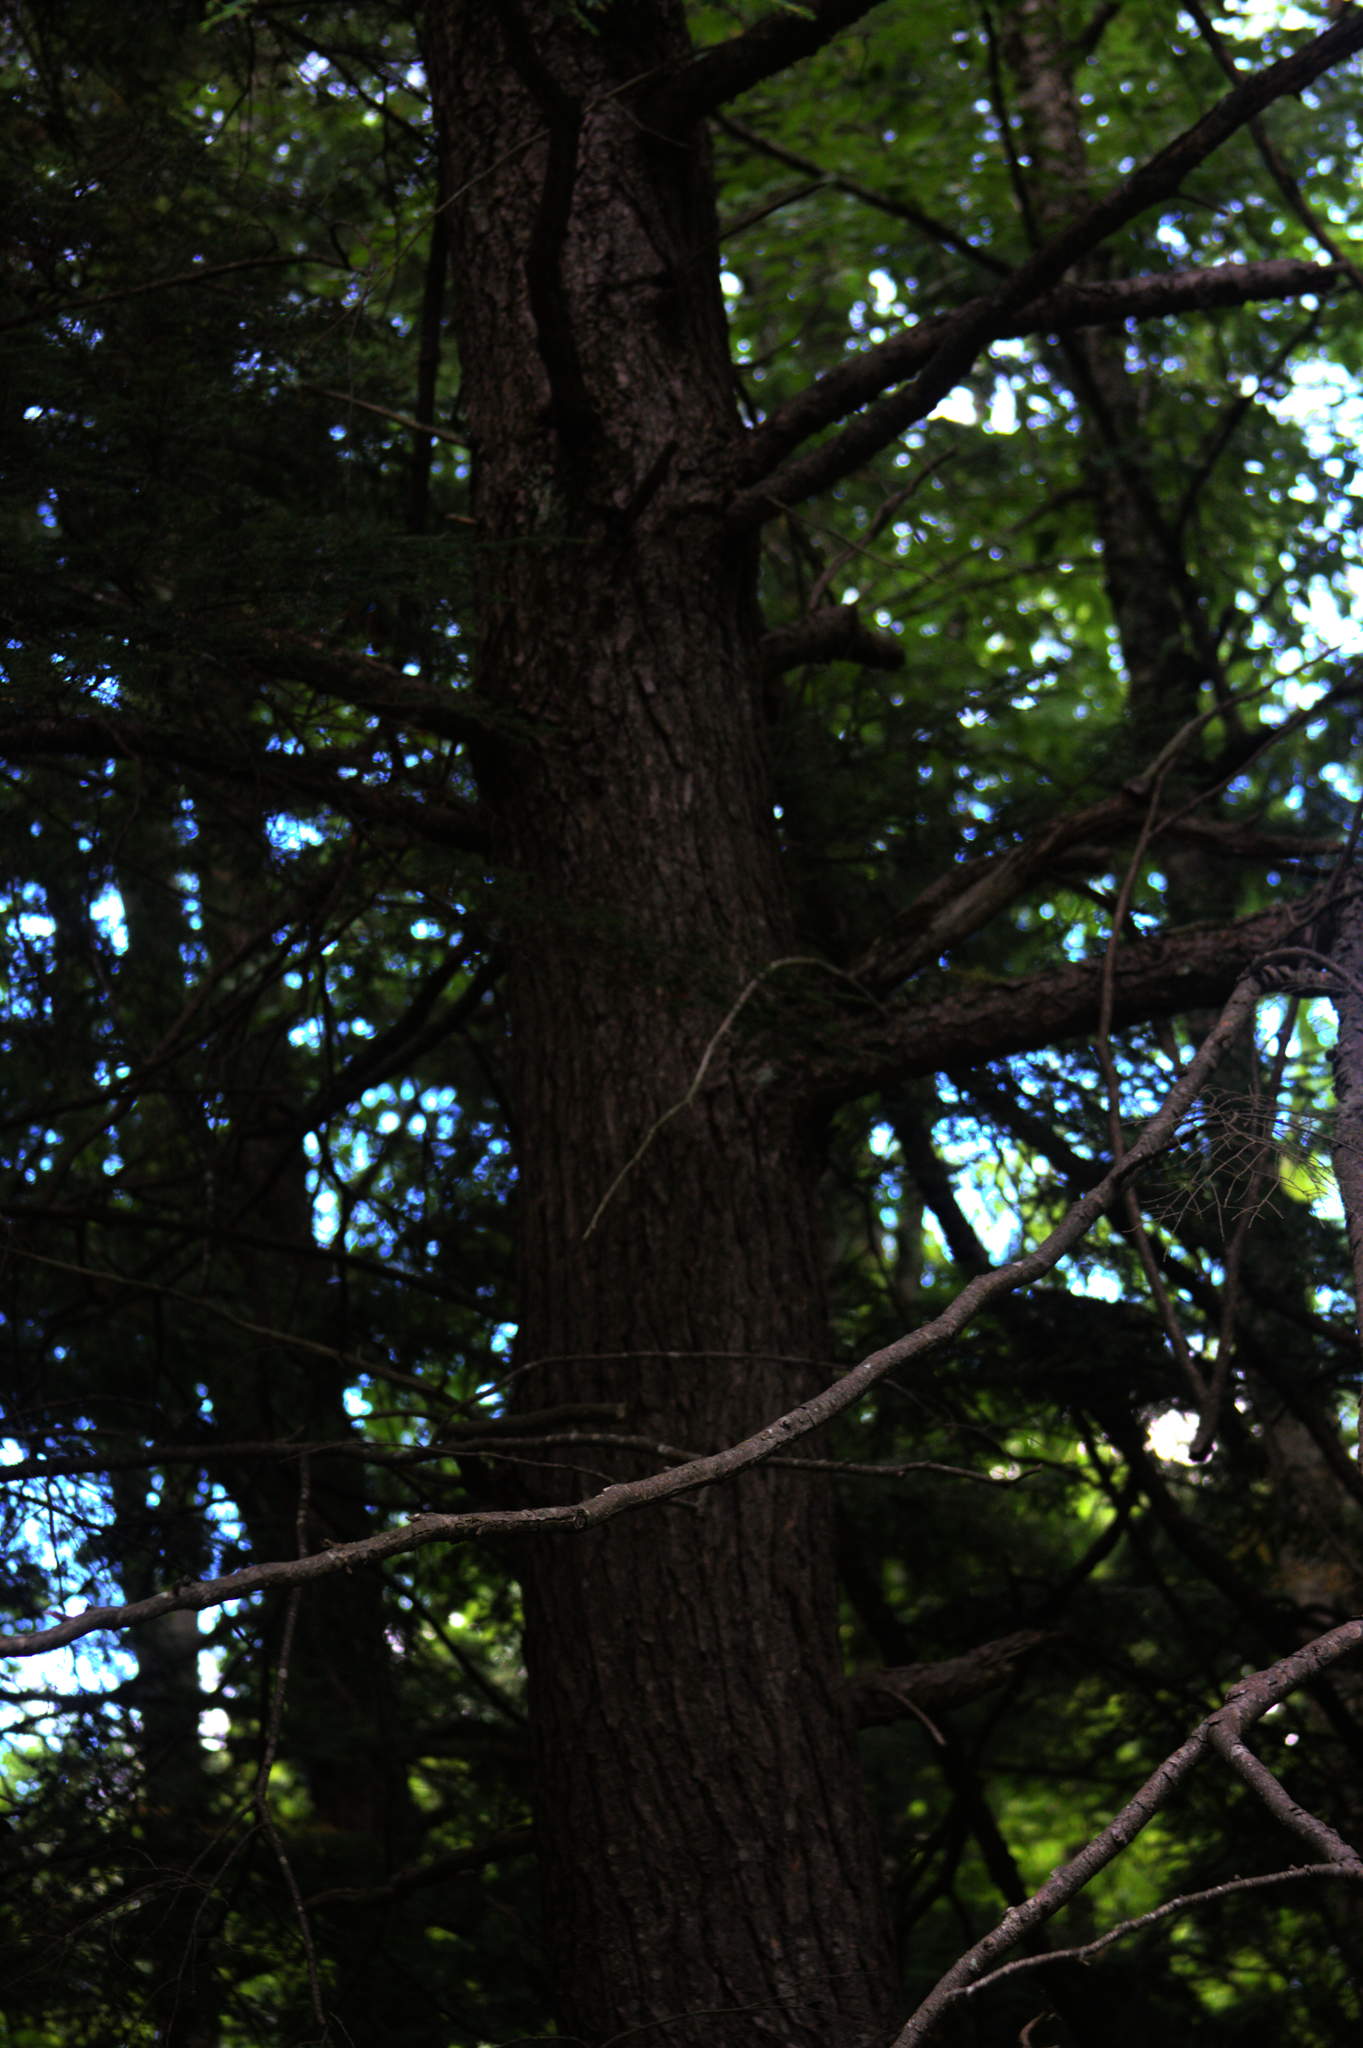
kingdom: Plantae
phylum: Tracheophyta
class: Pinopsida
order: Pinales
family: Pinaceae
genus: Tsuga
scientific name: Tsuga canadensis
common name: Eastern hemlock
